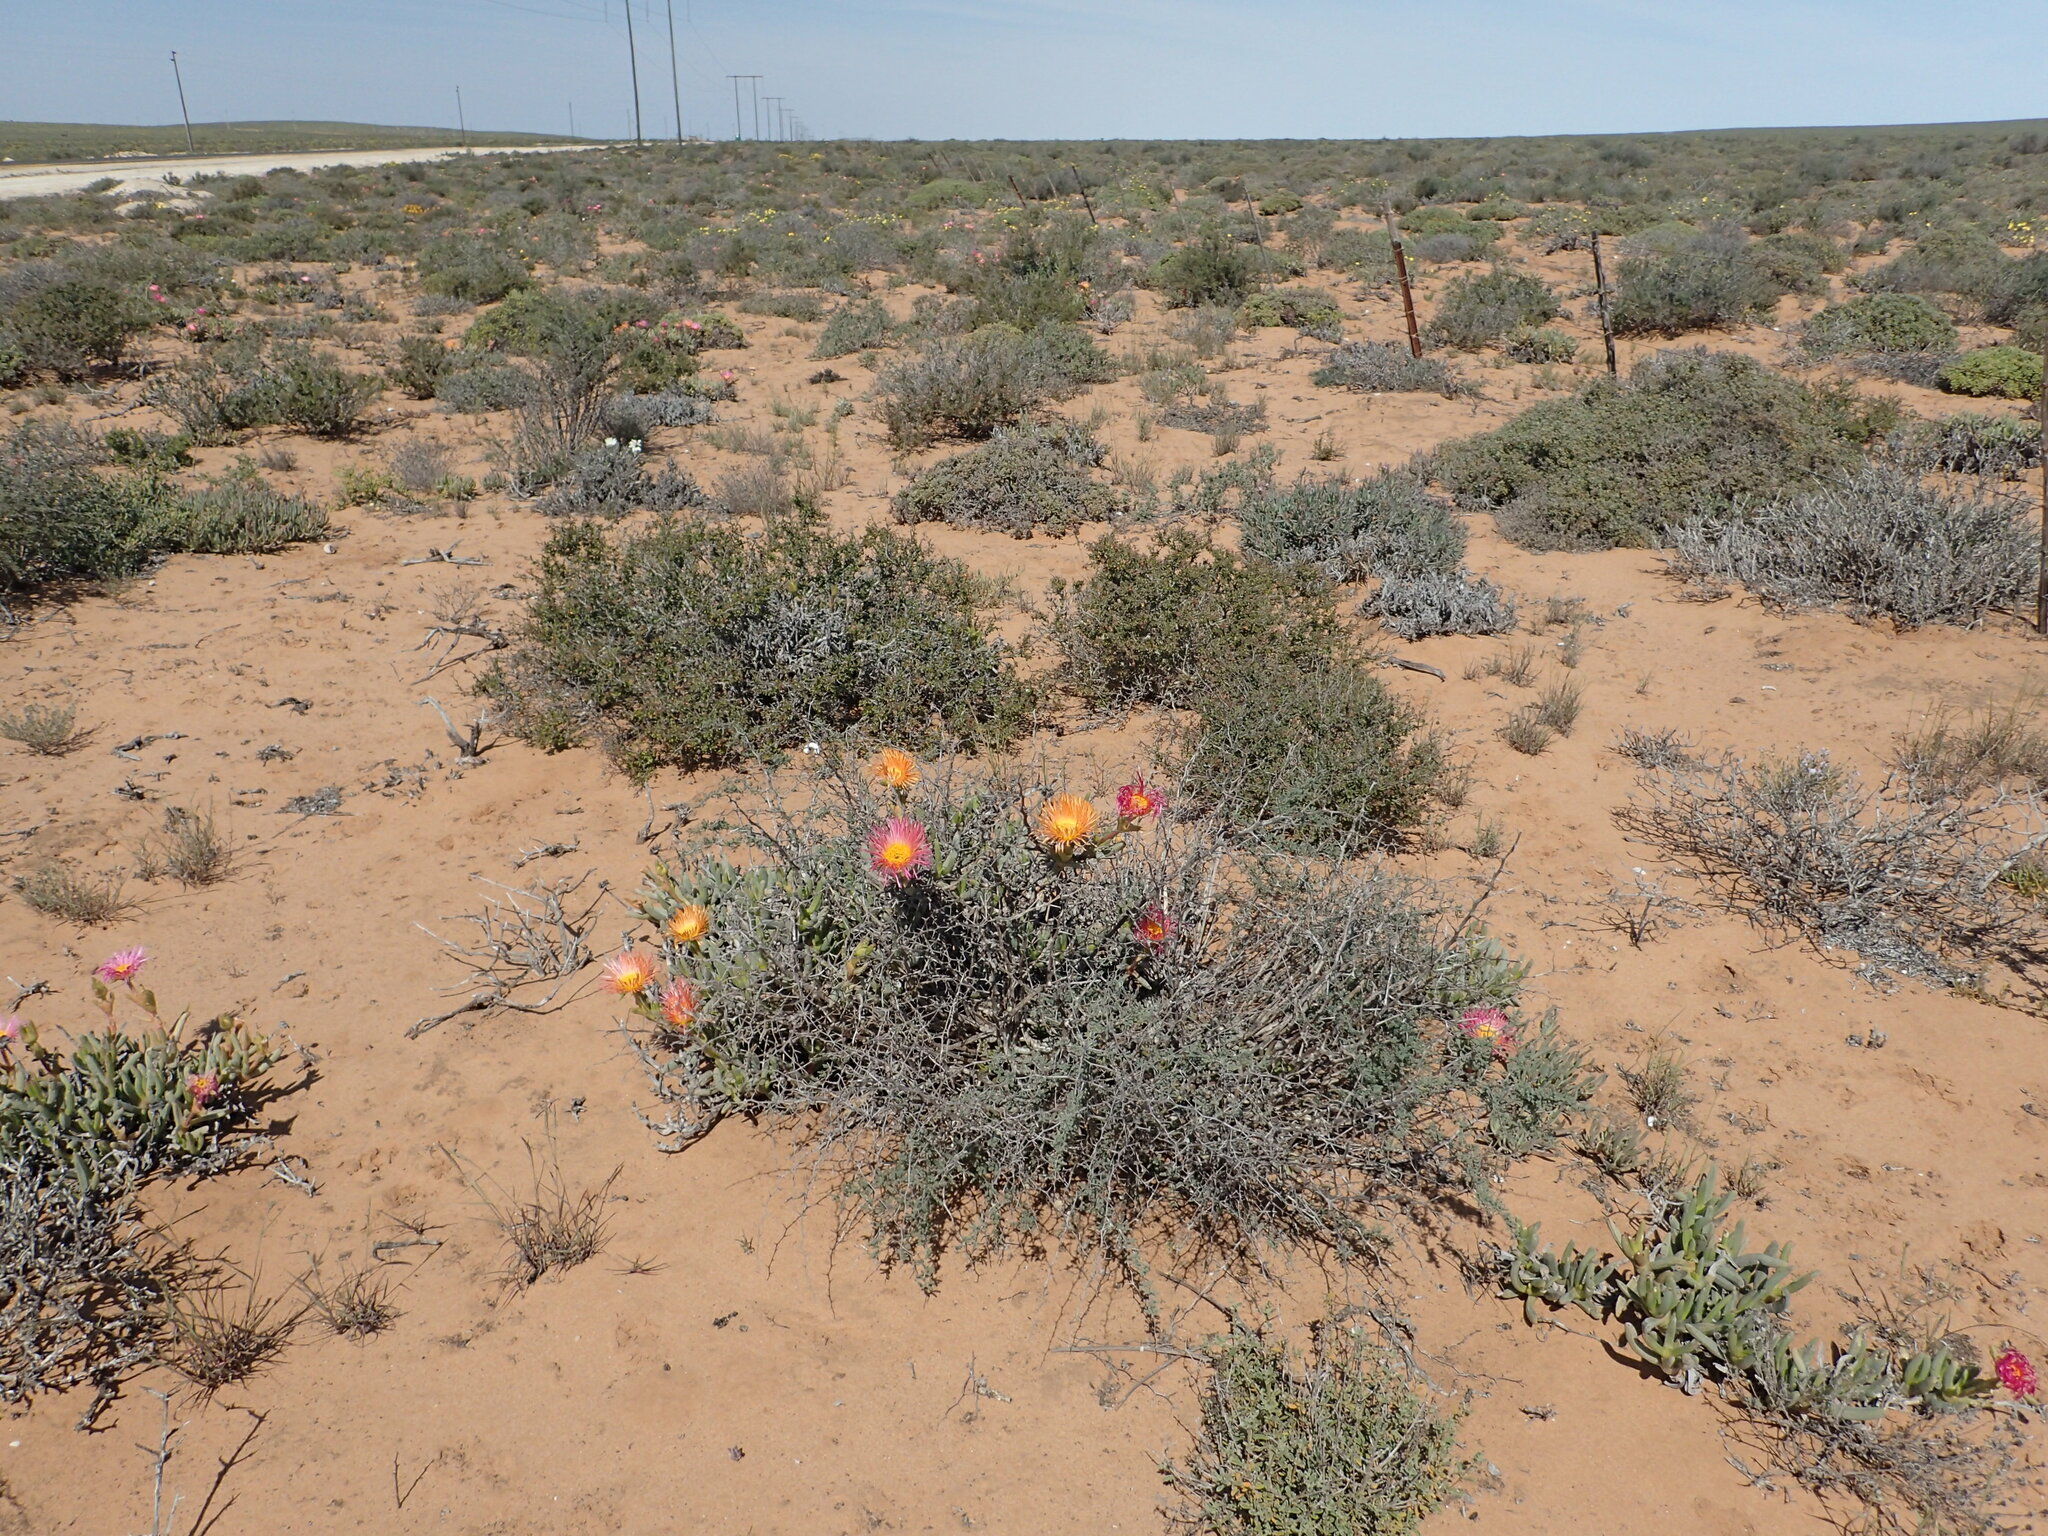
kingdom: Plantae
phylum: Tracheophyta
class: Magnoliopsida
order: Caryophyllales
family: Aizoaceae
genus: Jordaaniella
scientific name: Jordaaniella spongiosa
